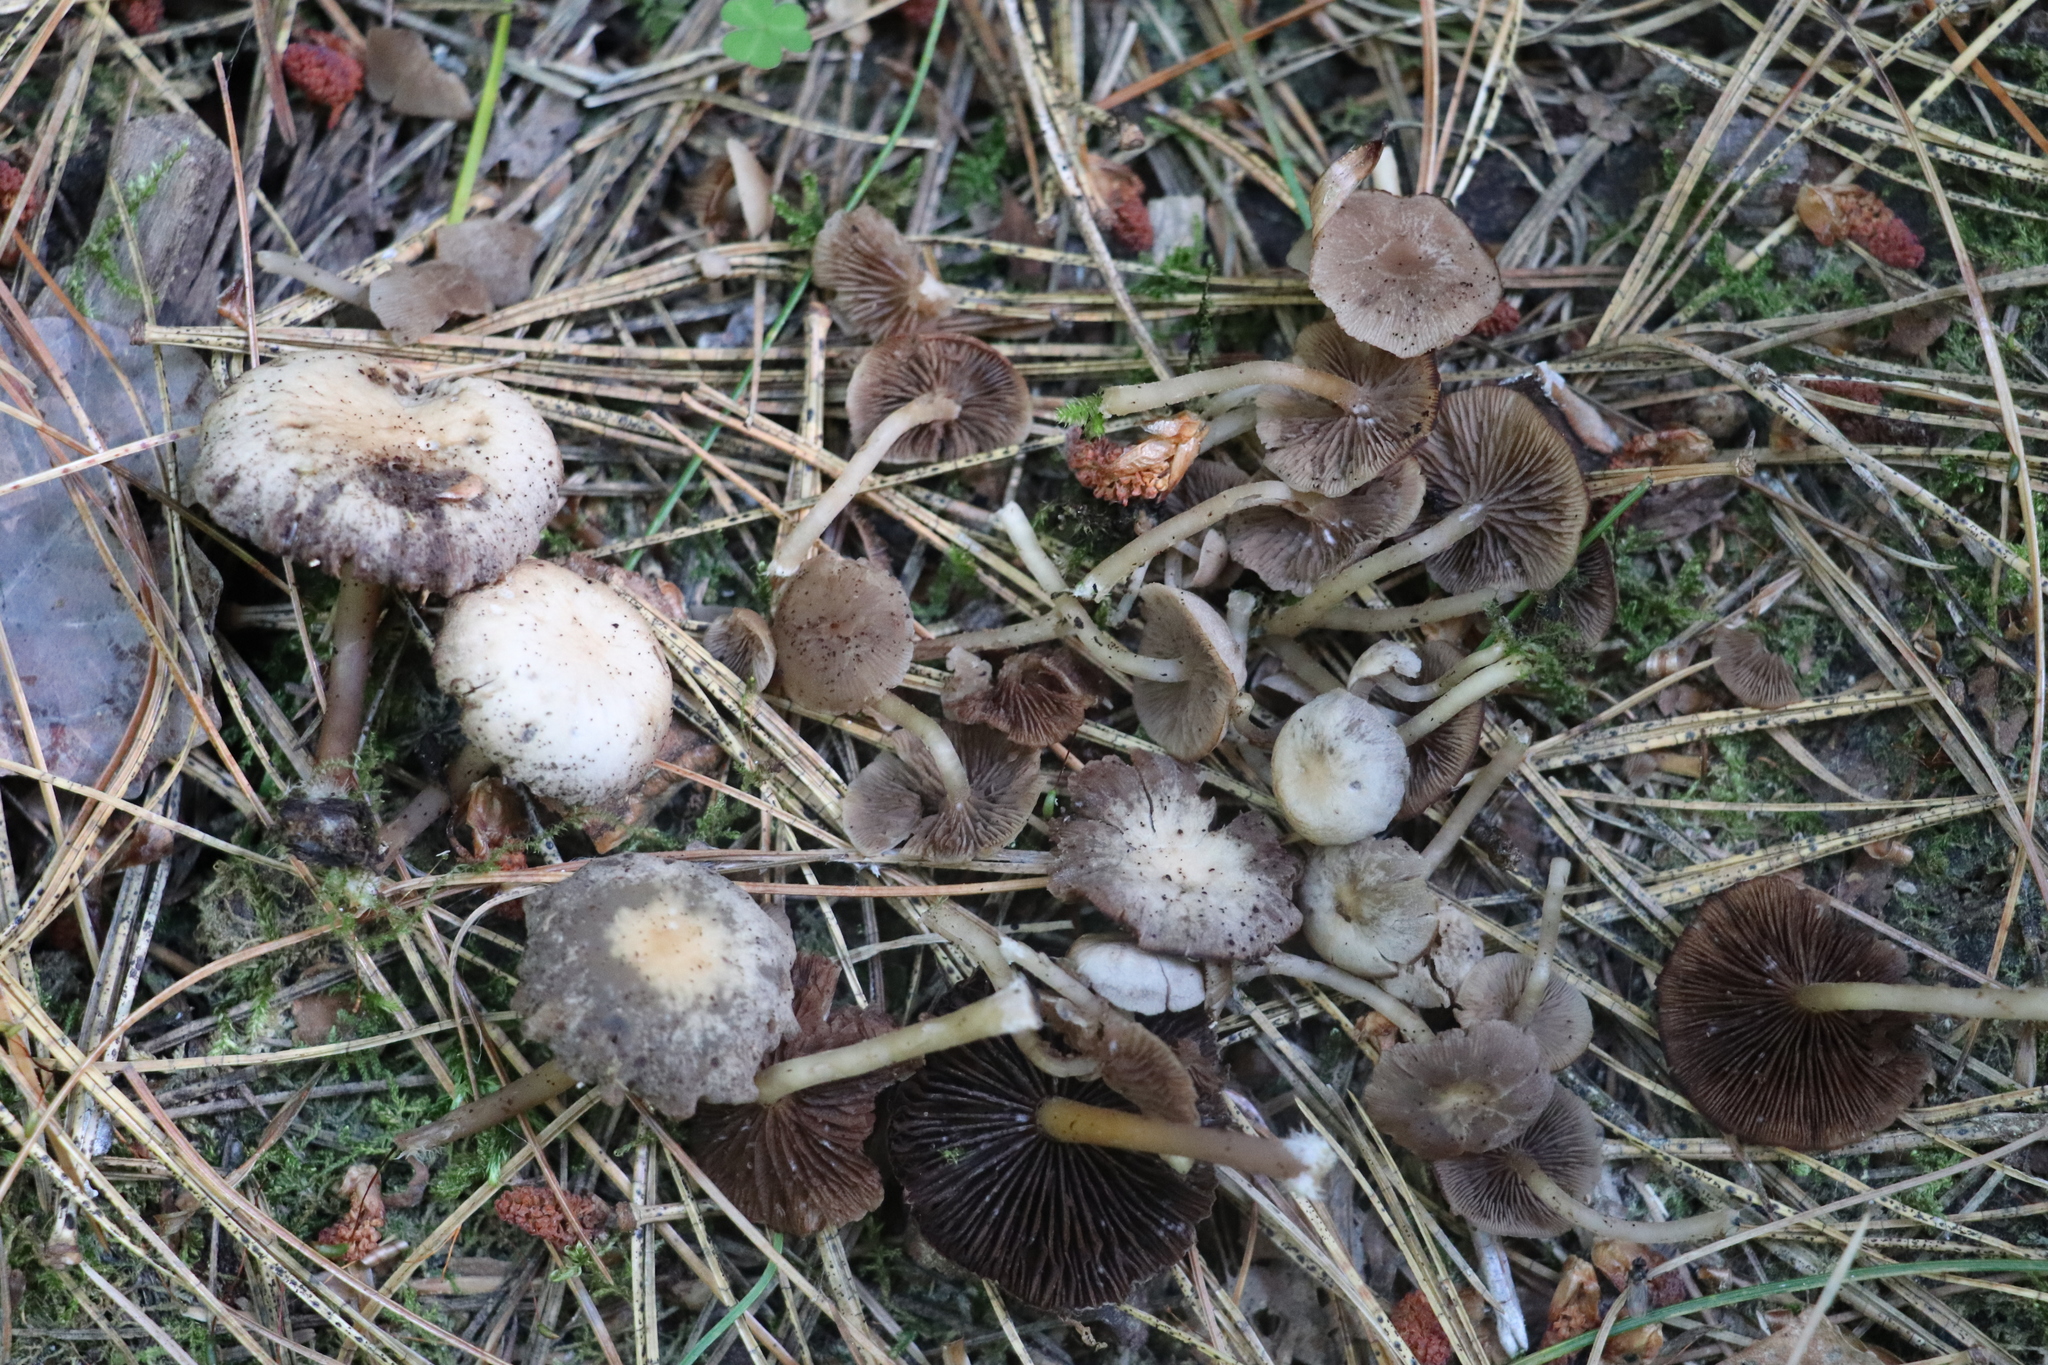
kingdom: Fungi
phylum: Basidiomycota
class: Agaricomycetes
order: Agaricales
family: Psathyrellaceae
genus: Psathyrella
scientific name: Psathyrella pygmaea
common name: Pygmy brittlestem
